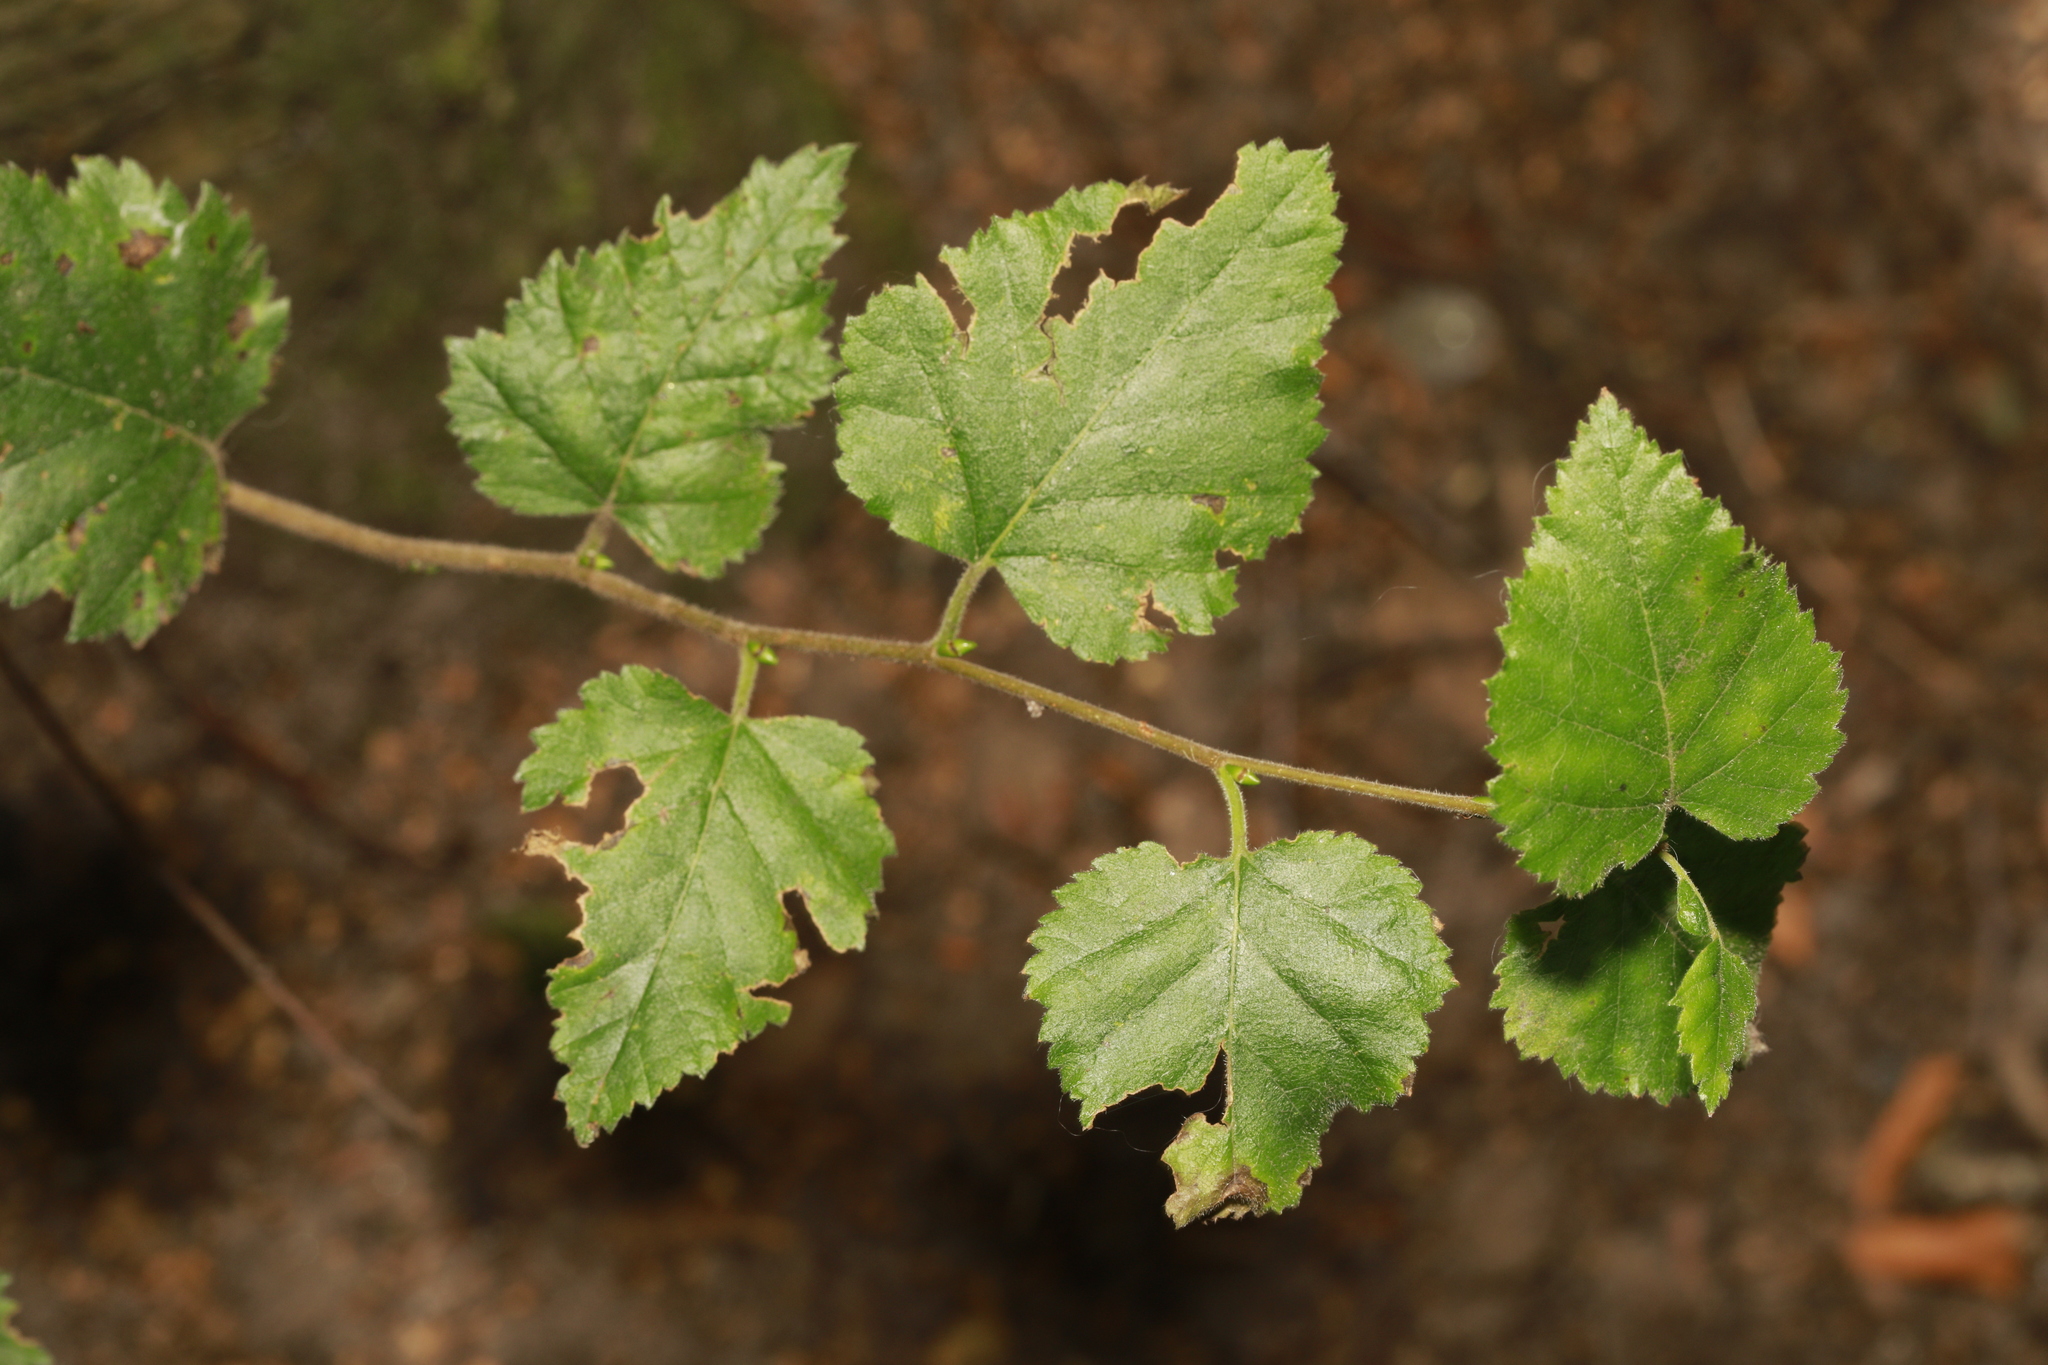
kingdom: Plantae
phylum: Tracheophyta
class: Magnoliopsida
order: Fagales
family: Betulaceae
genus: Betula
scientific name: Betula pubescens
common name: Downy birch
